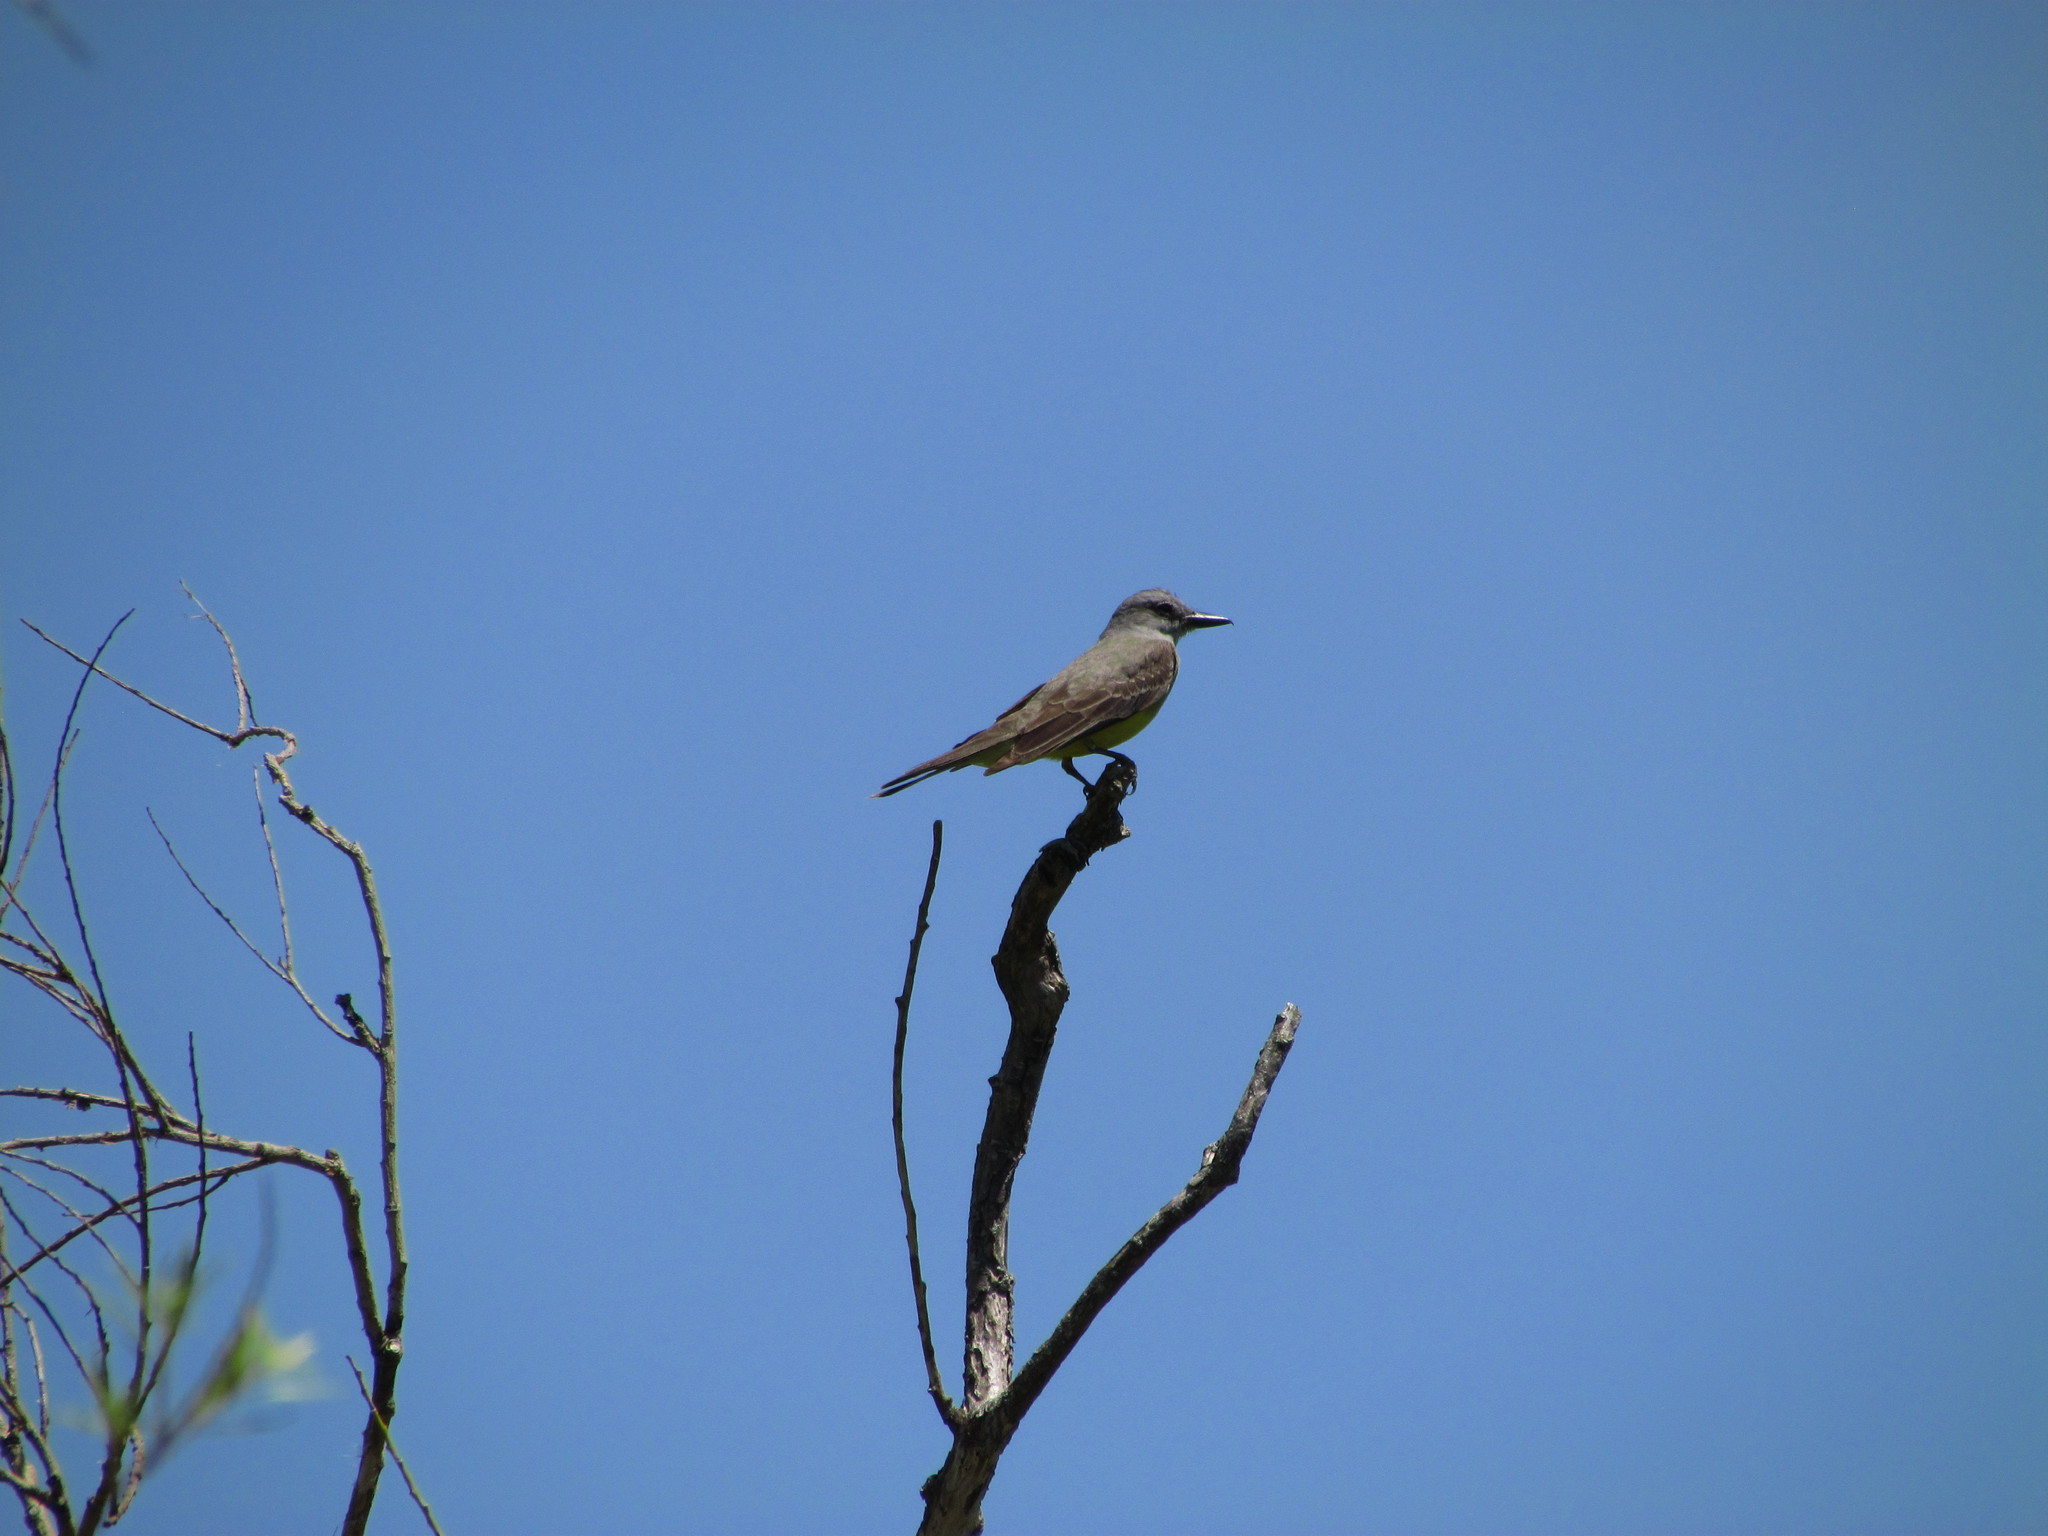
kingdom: Animalia
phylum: Chordata
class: Aves
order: Passeriformes
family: Tyrannidae
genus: Tyrannus
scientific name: Tyrannus melancholicus
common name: Tropical kingbird
